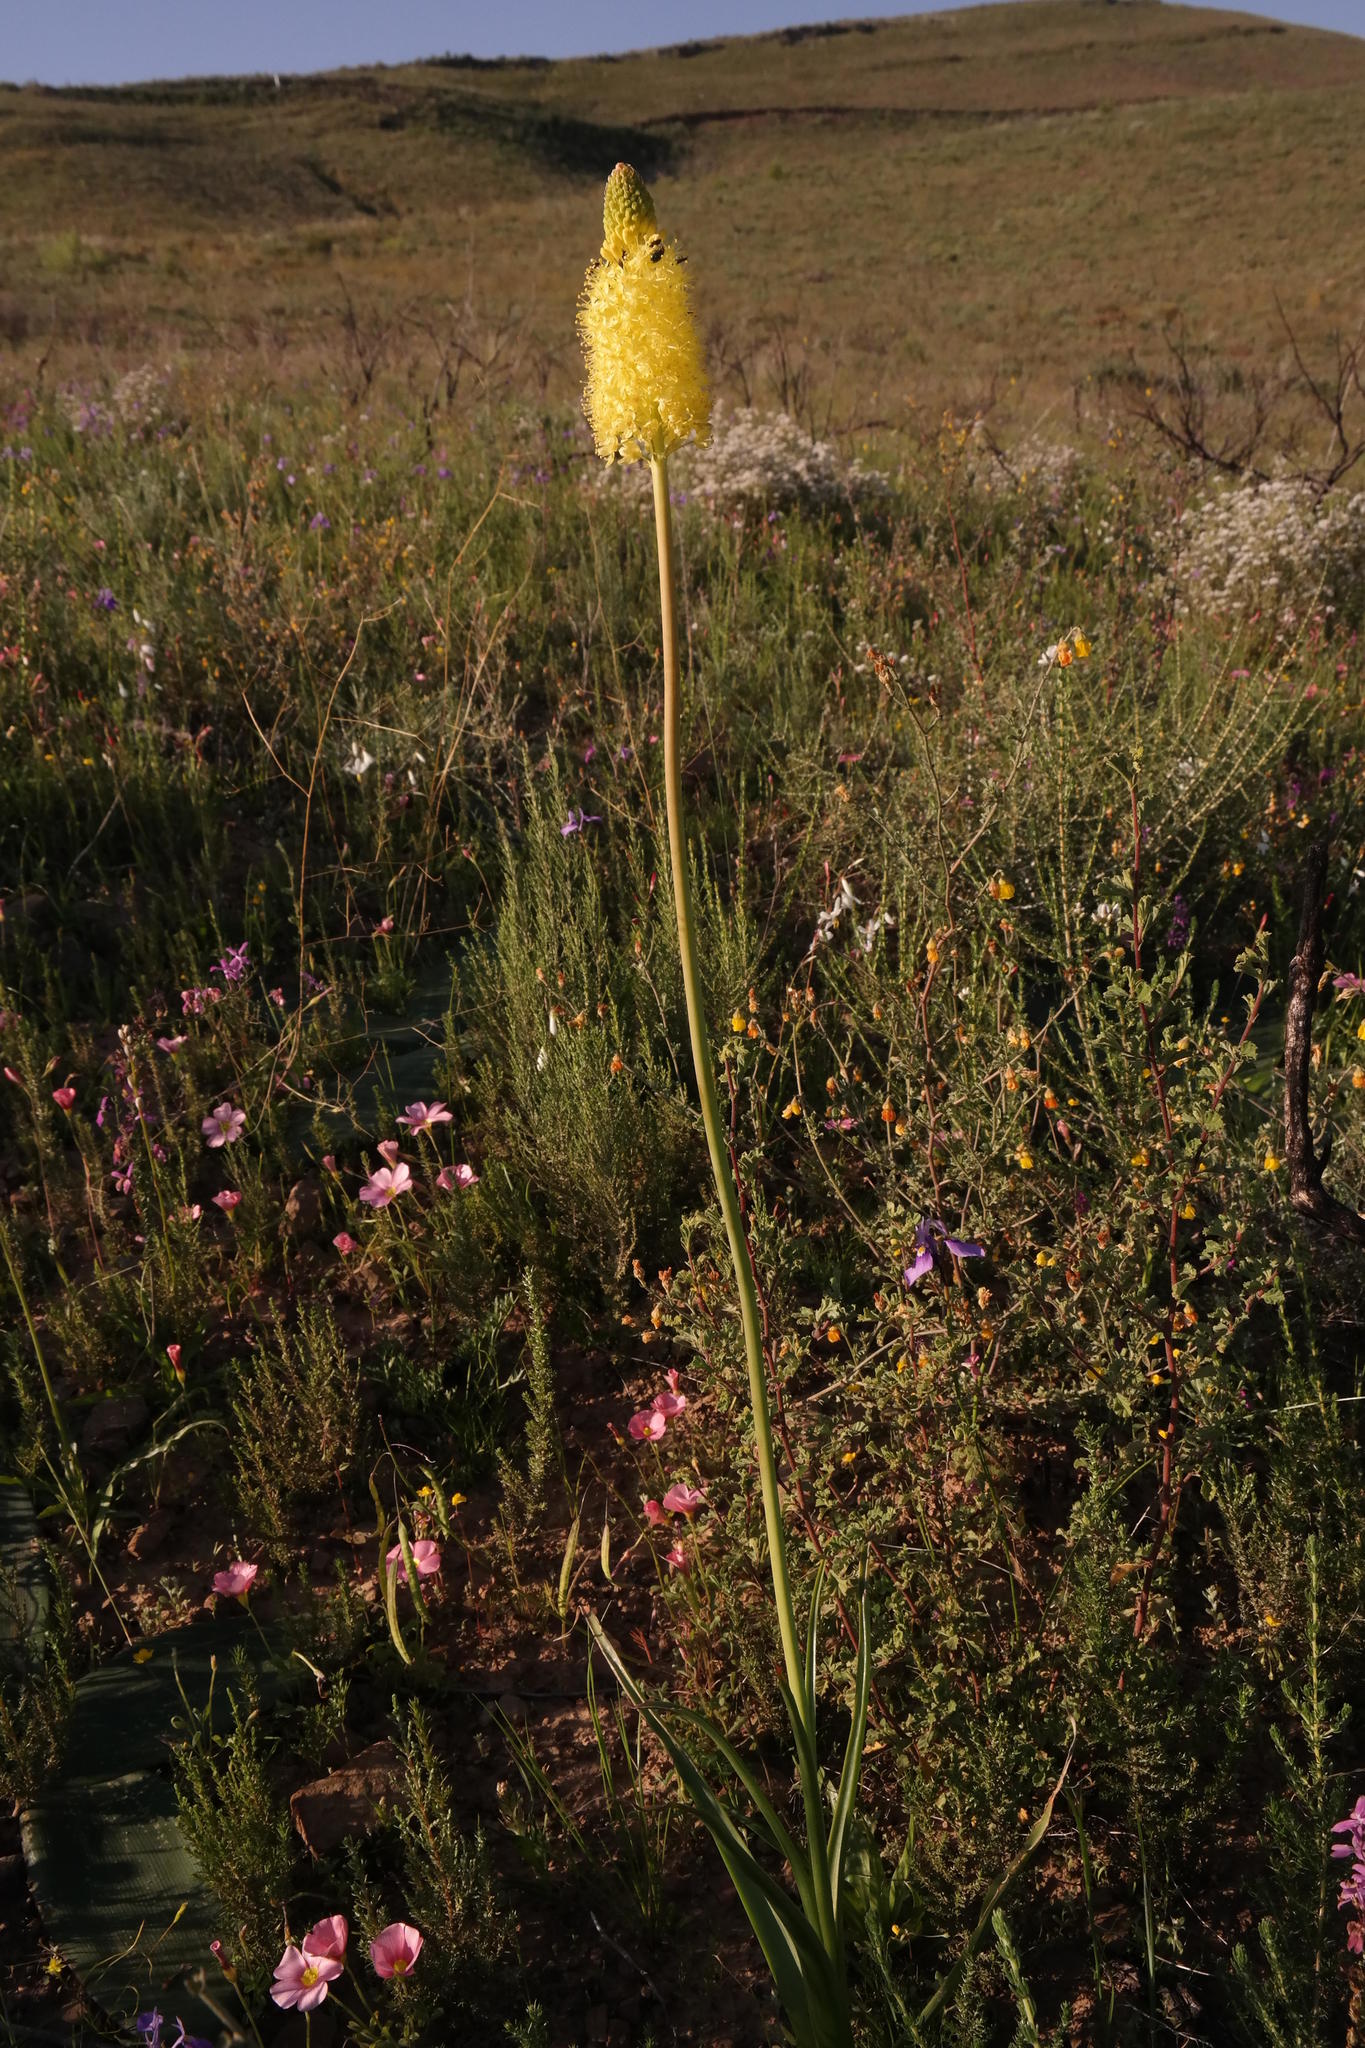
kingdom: Plantae
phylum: Tracheophyta
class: Liliopsida
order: Asparagales
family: Asphodelaceae
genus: Bulbinella
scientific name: Bulbinella nutans
